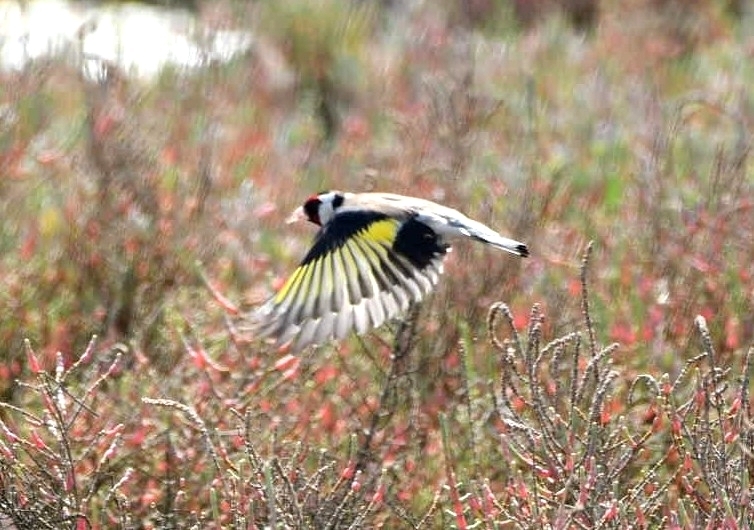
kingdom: Animalia
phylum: Chordata
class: Aves
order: Passeriformes
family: Fringillidae
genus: Carduelis
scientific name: Carduelis carduelis
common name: European goldfinch
